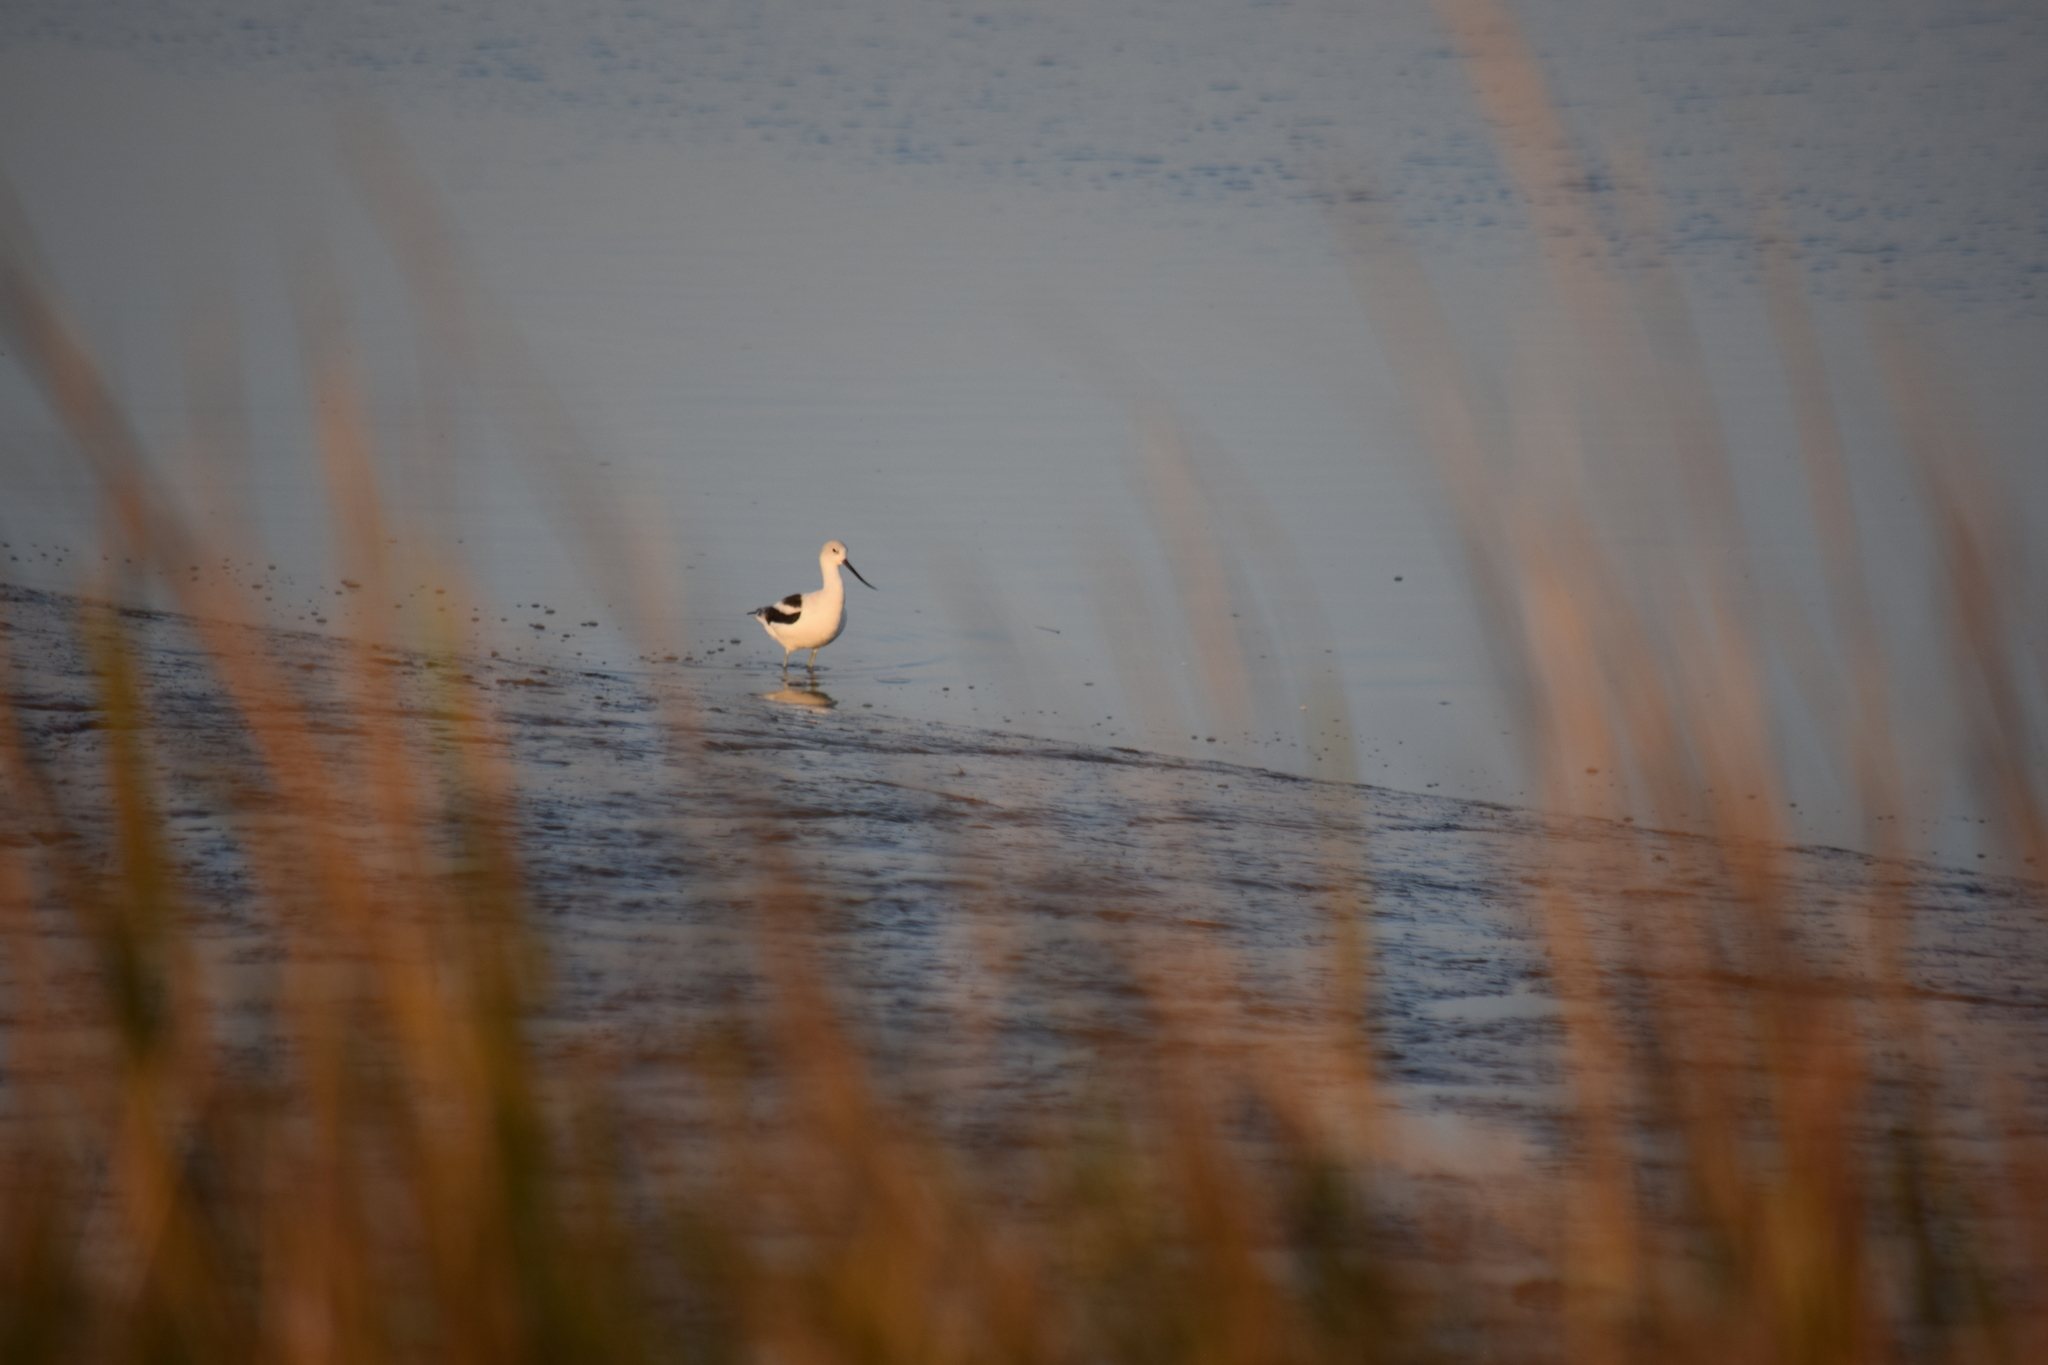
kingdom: Animalia
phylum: Chordata
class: Aves
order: Charadriiformes
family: Recurvirostridae
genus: Recurvirostra
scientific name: Recurvirostra americana
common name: American avocet
